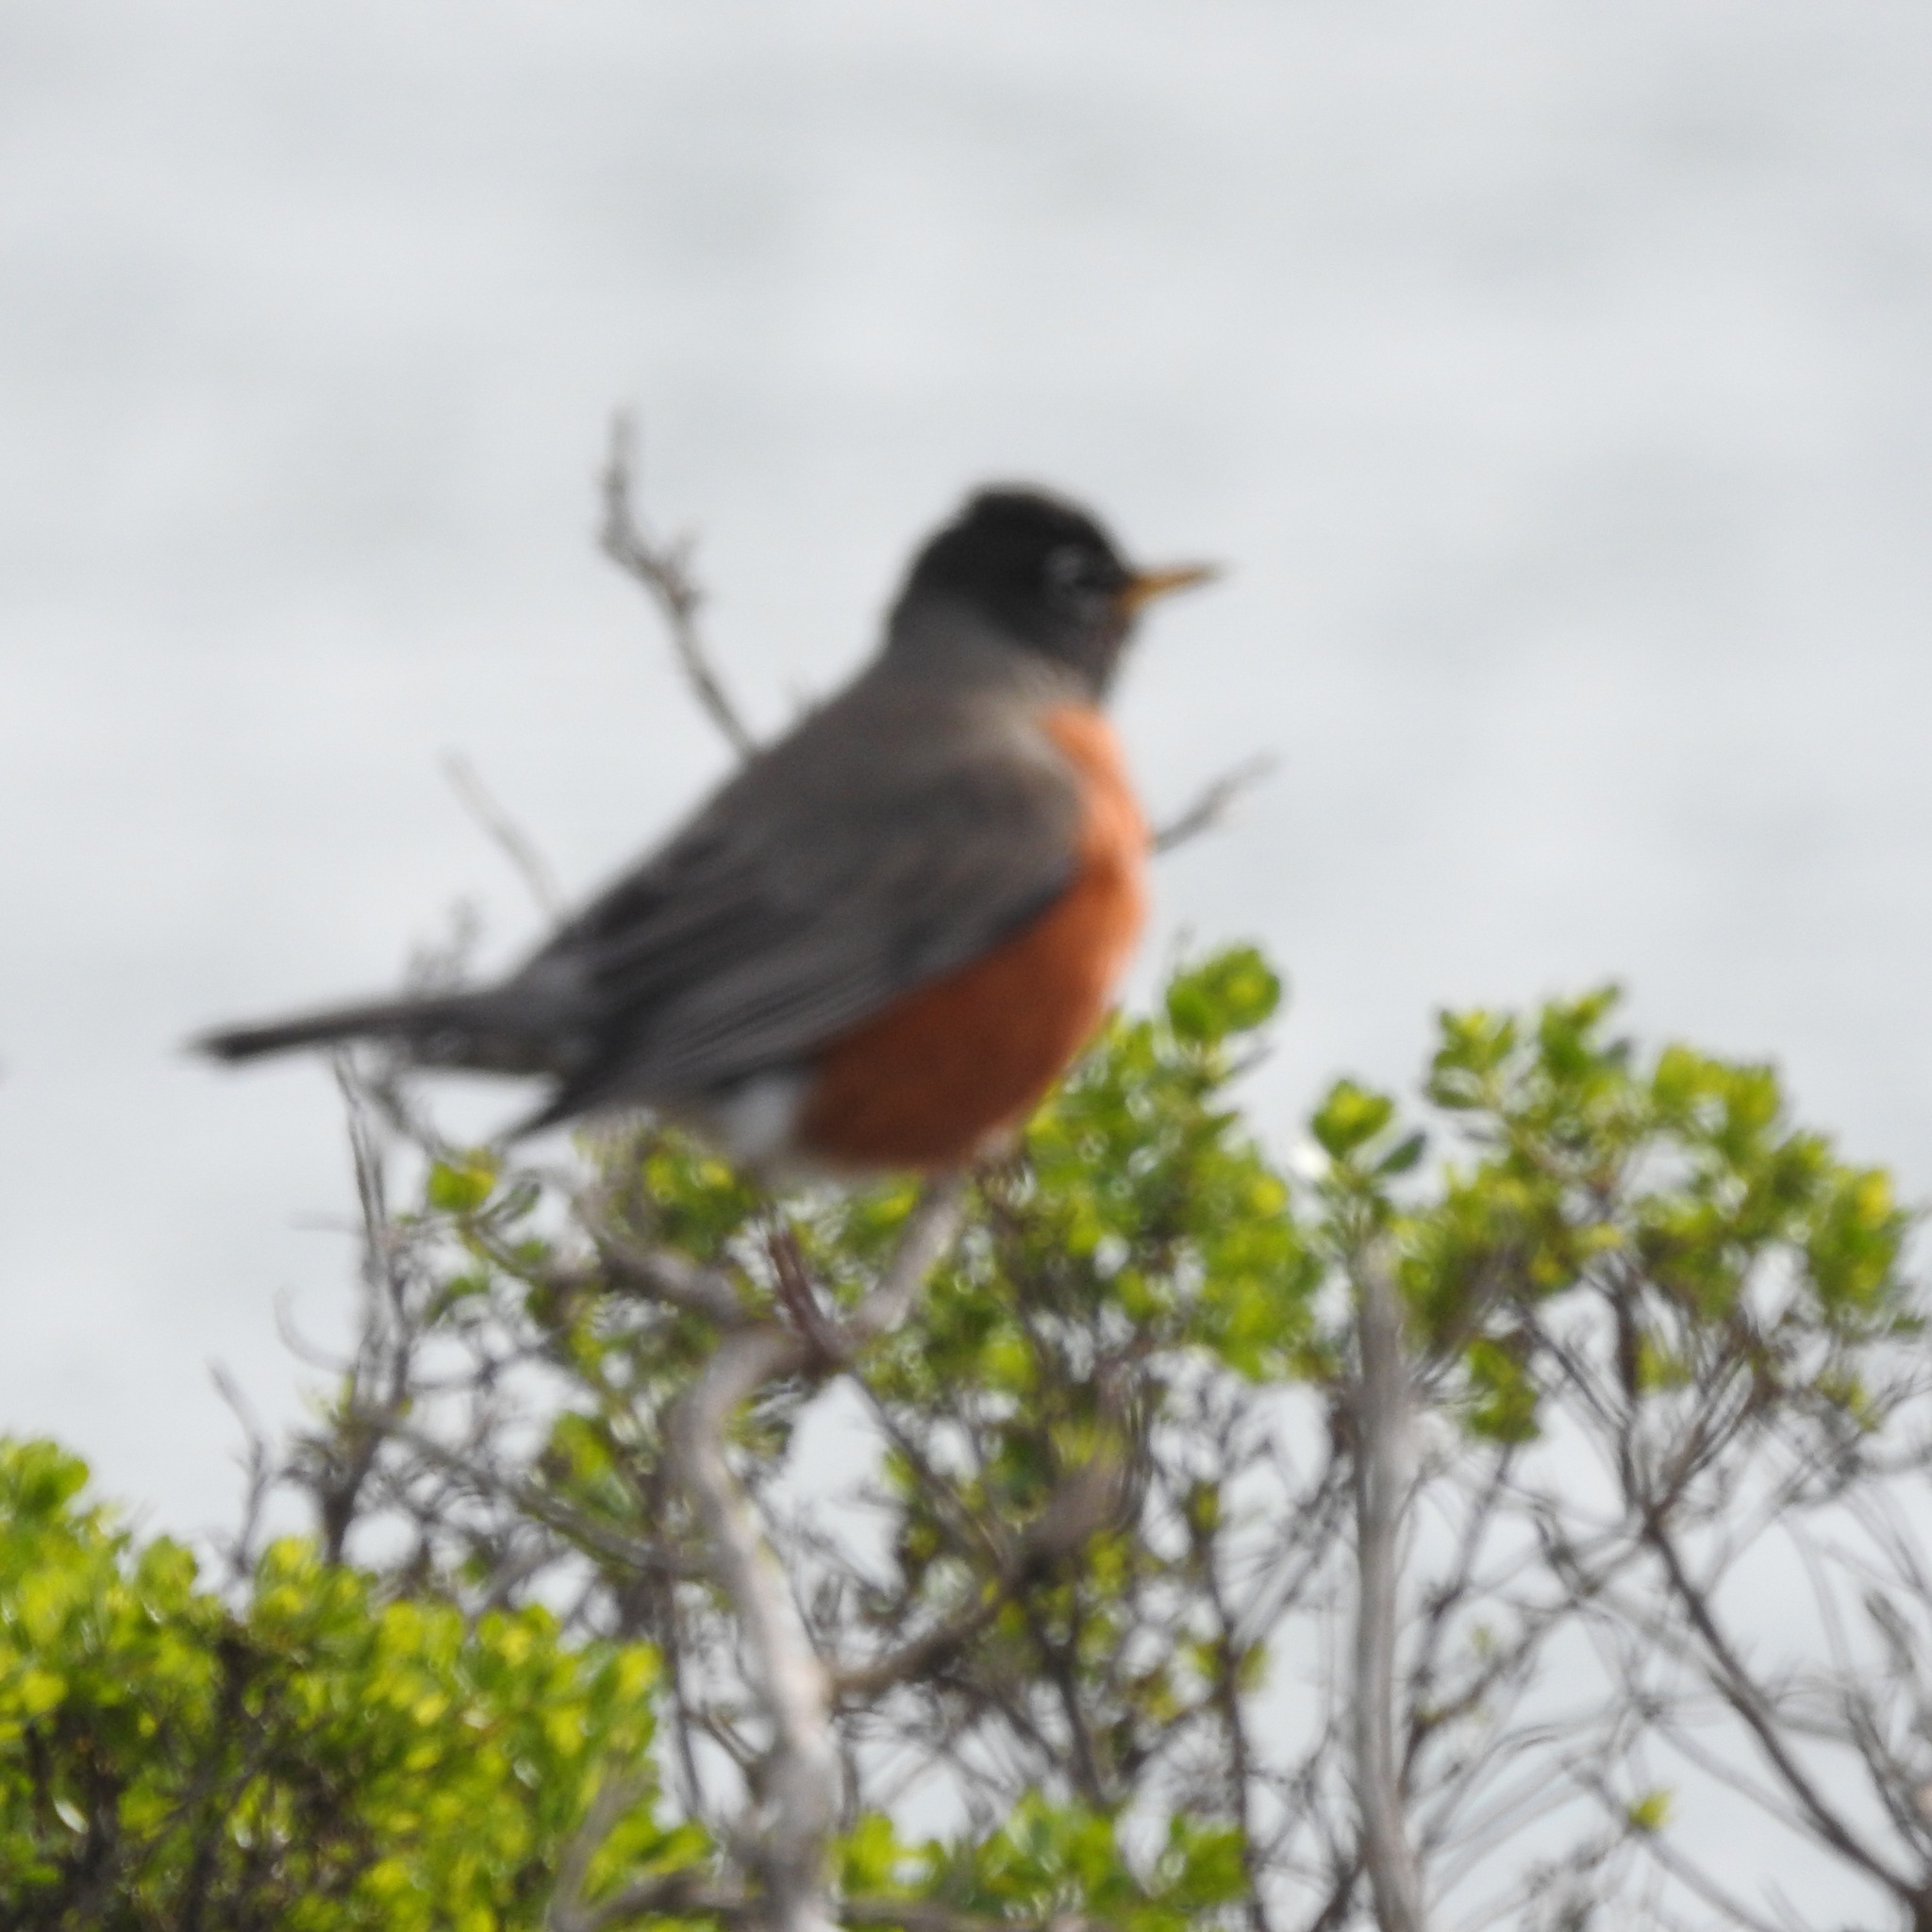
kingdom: Animalia
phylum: Chordata
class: Aves
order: Passeriformes
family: Turdidae
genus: Turdus
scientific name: Turdus migratorius
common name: American robin
